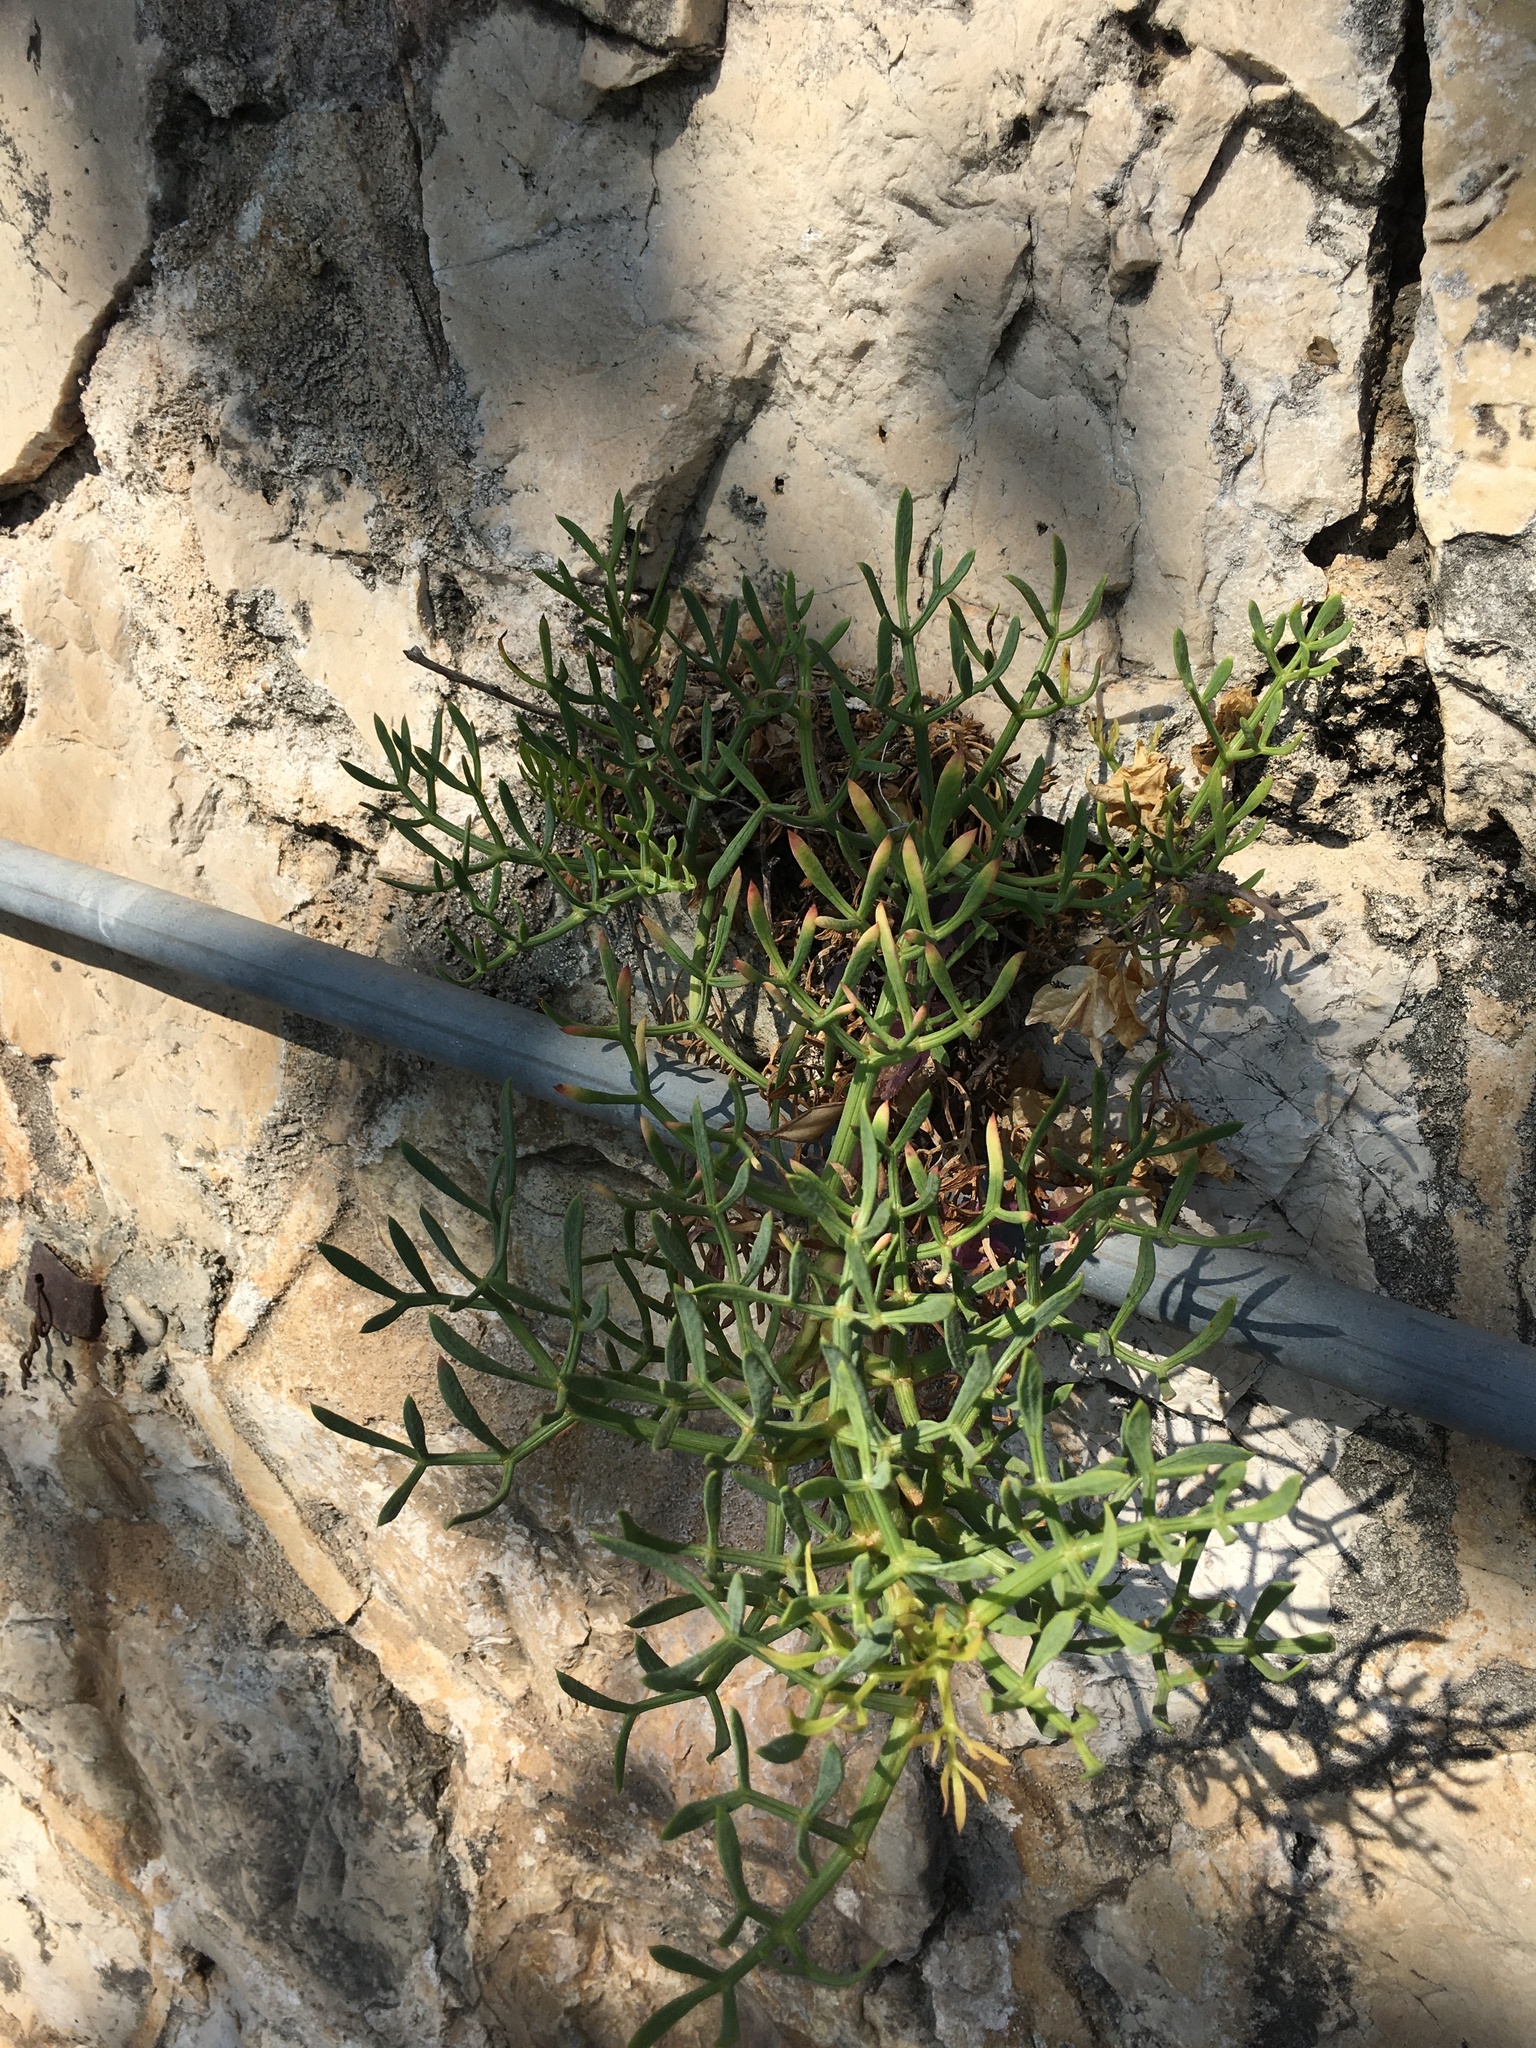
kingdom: Plantae
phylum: Tracheophyta
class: Magnoliopsida
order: Apiales
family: Apiaceae
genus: Crithmum
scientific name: Crithmum maritimum
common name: Rock samphire
